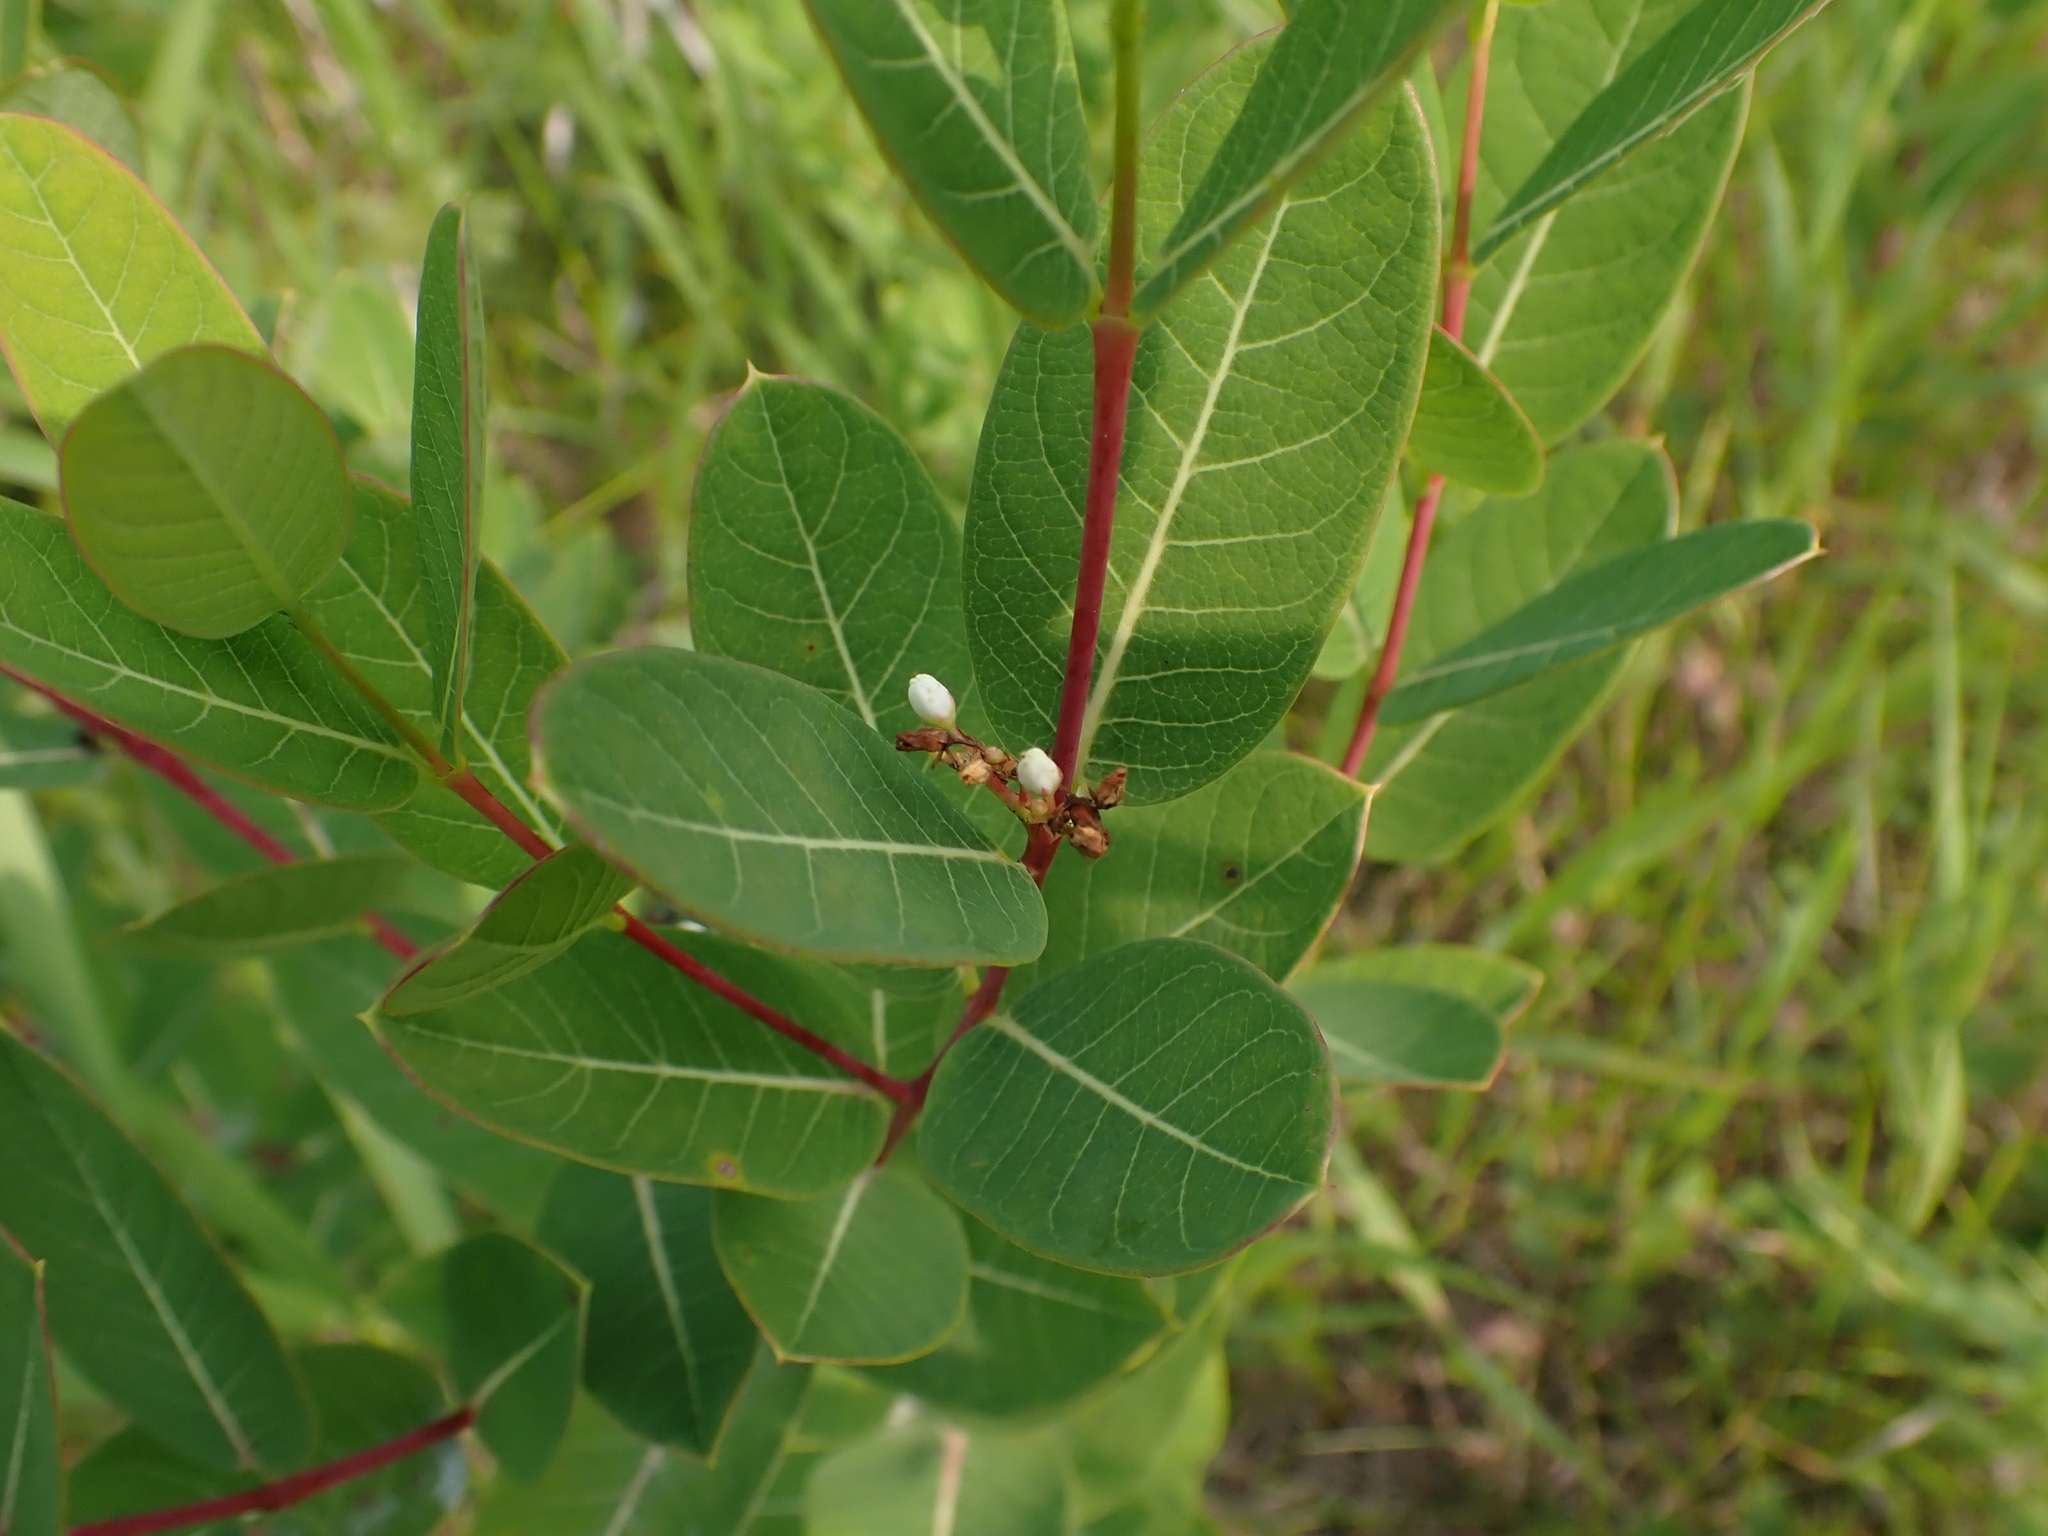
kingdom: Plantae
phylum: Tracheophyta
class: Magnoliopsida
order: Gentianales
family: Apocynaceae
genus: Apocynum
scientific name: Apocynum cannabinum
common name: Hemp dogbane
